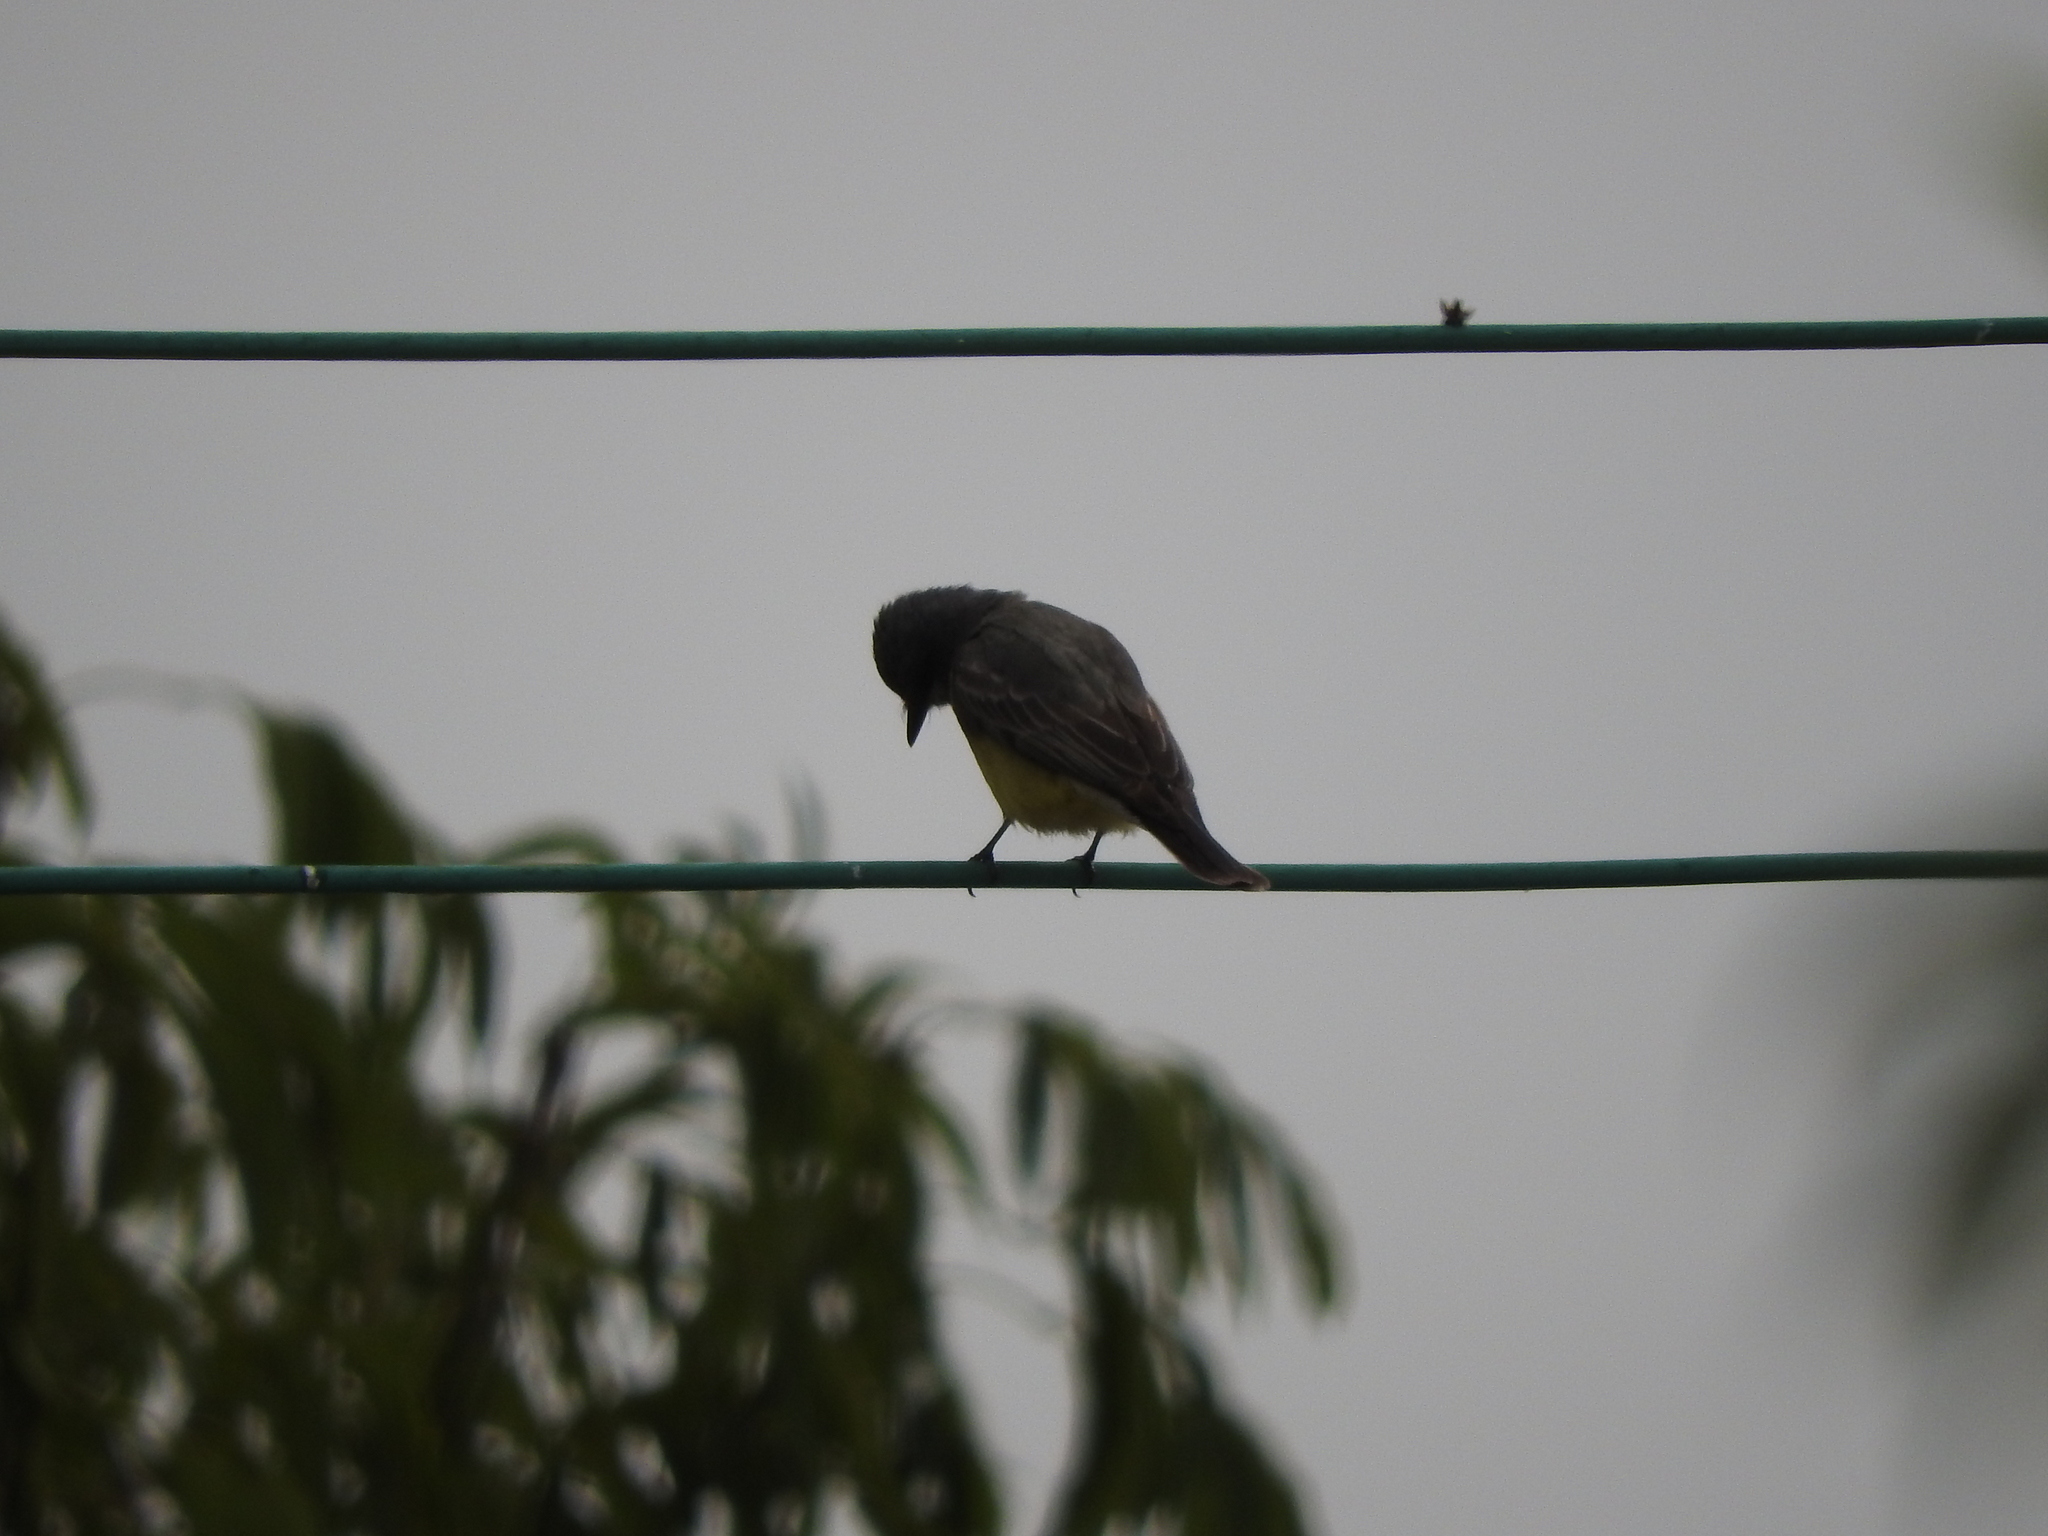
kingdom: Animalia
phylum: Chordata
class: Aves
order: Passeriformes
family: Tyrannidae
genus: Tyrannus
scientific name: Tyrannus vociferans
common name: Cassin's kingbird
